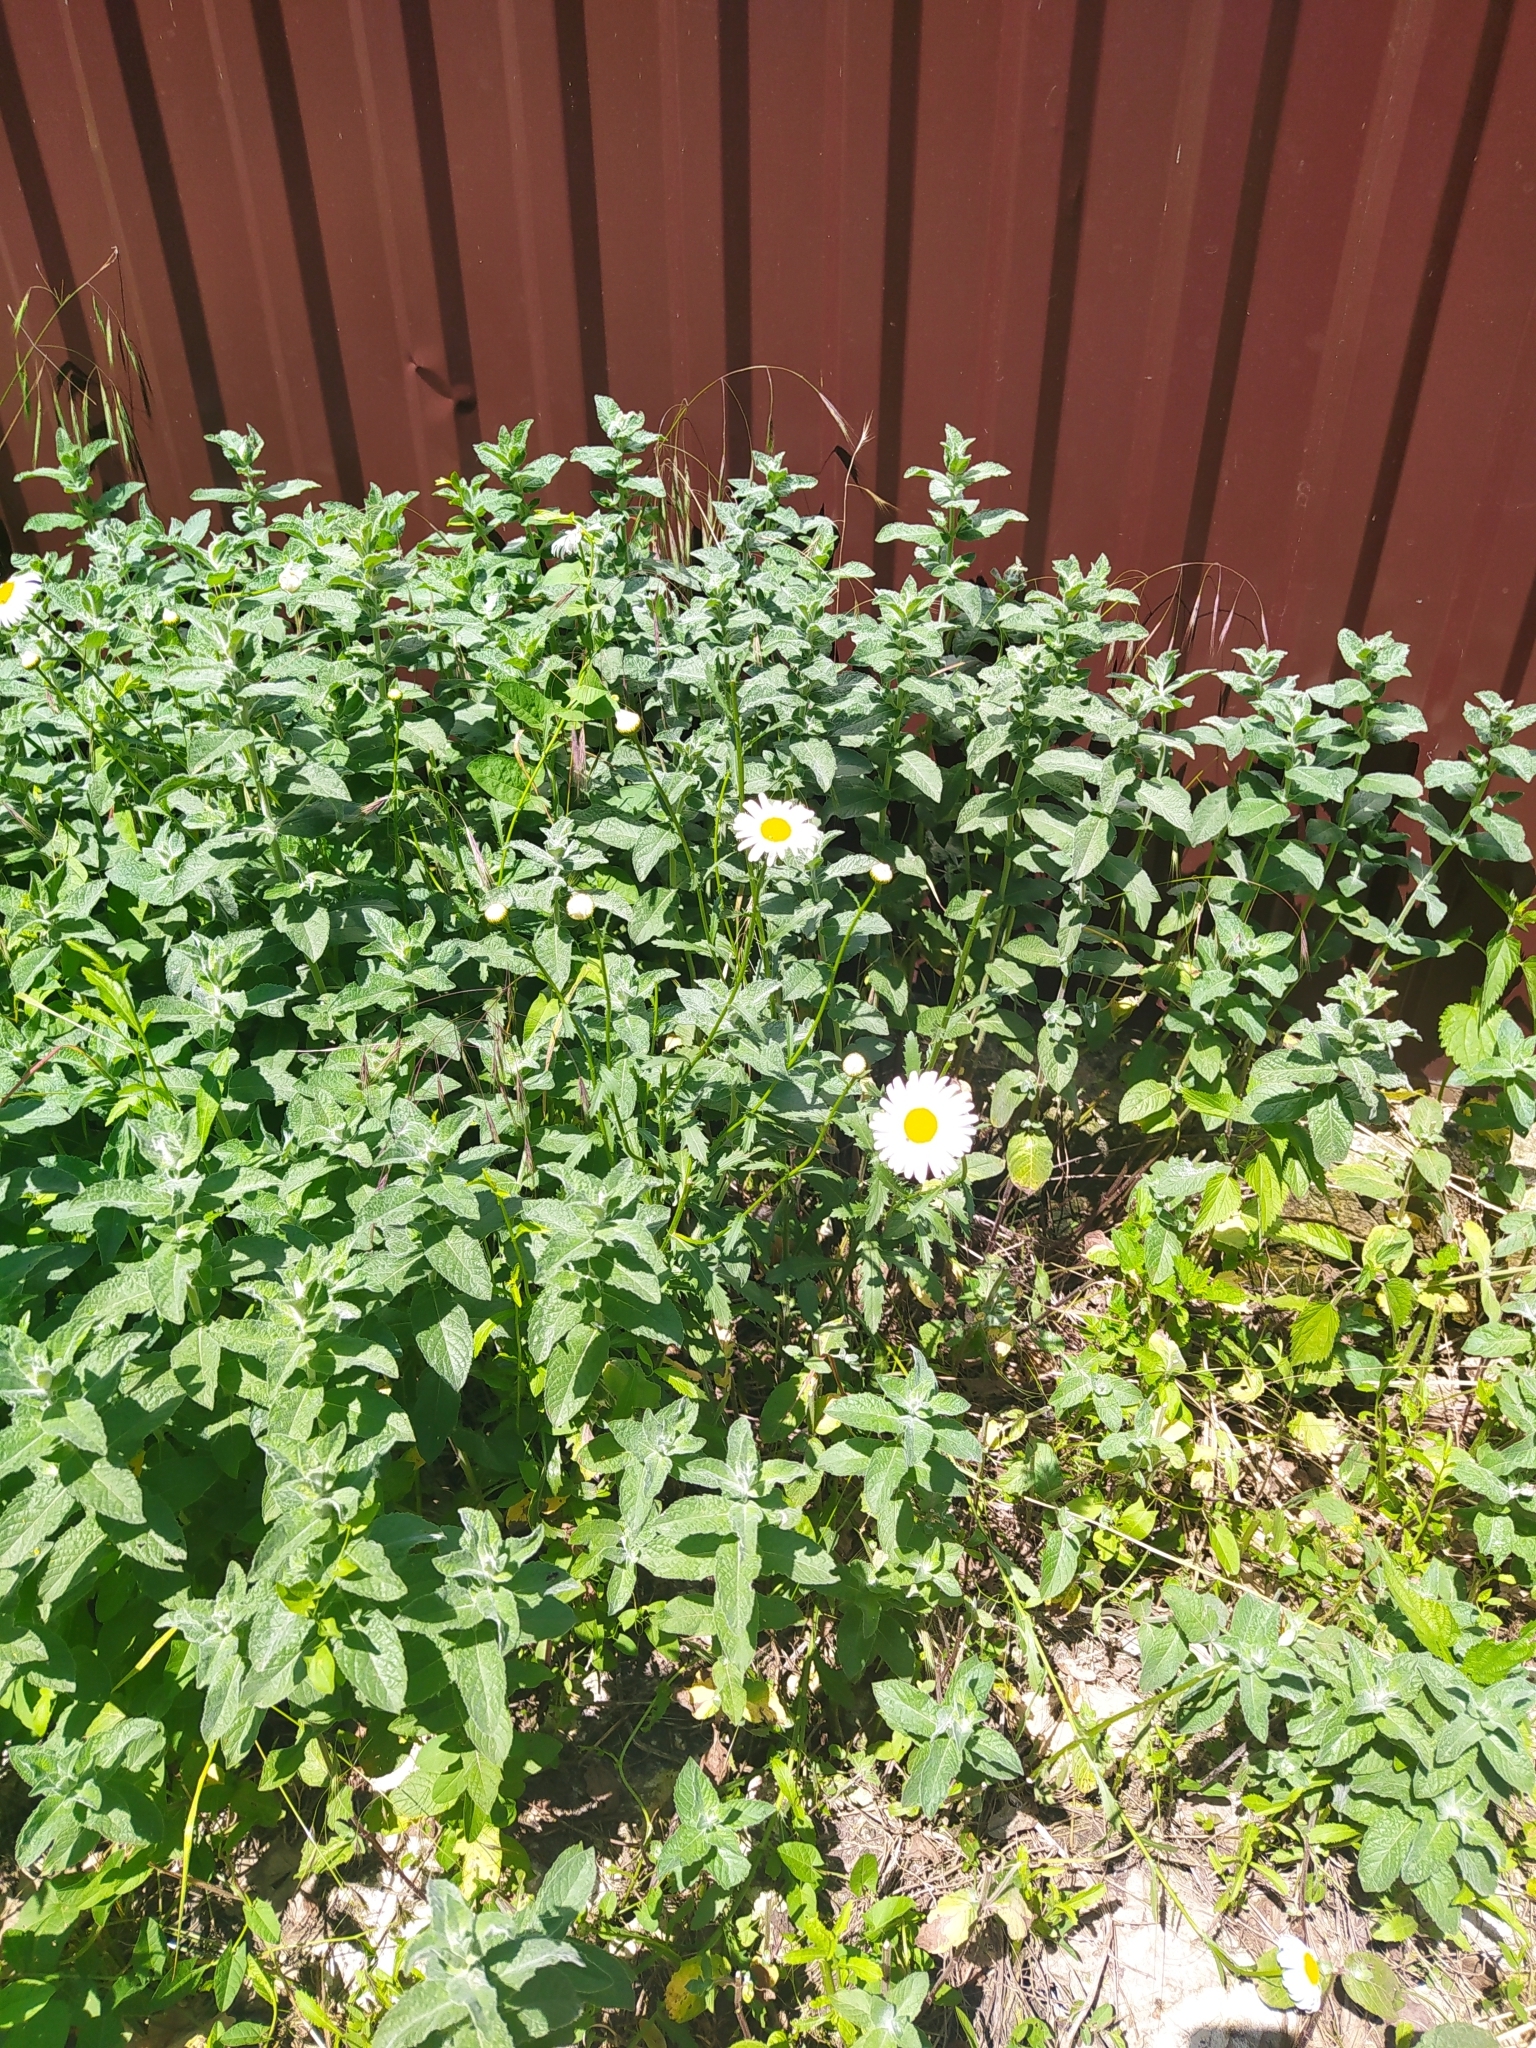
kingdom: Plantae
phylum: Tracheophyta
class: Magnoliopsida
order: Asterales
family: Asteraceae
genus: Leucanthemum
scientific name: Leucanthemum vulgare
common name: Oxeye daisy
